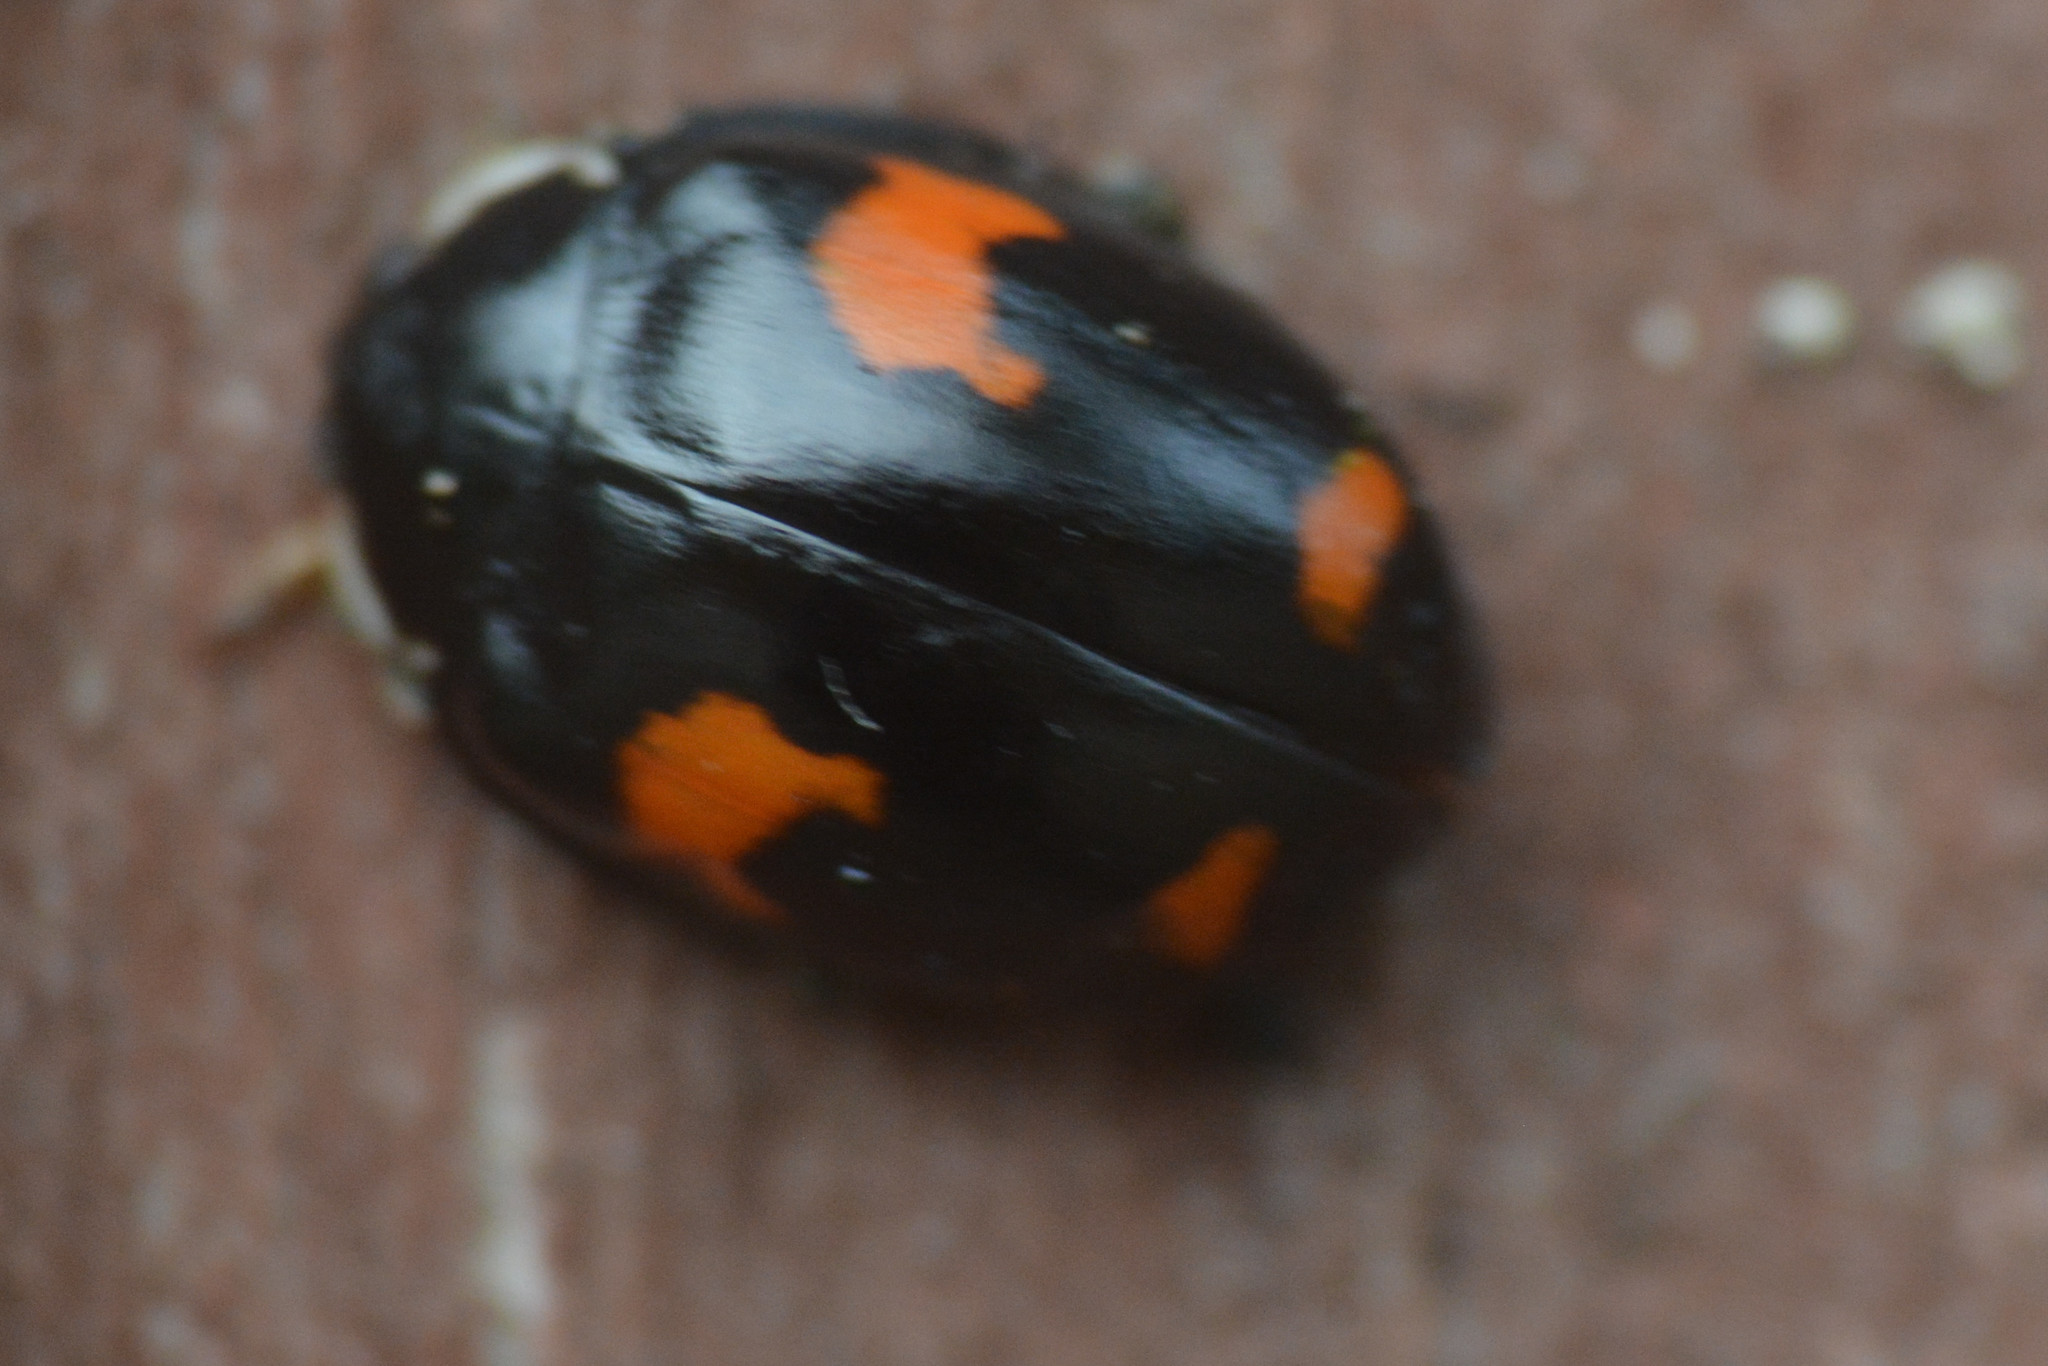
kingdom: Animalia
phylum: Arthropoda
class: Insecta
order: Coleoptera
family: Coccinellidae
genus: Harmonia
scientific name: Harmonia axyridis
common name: Harlequin ladybird
